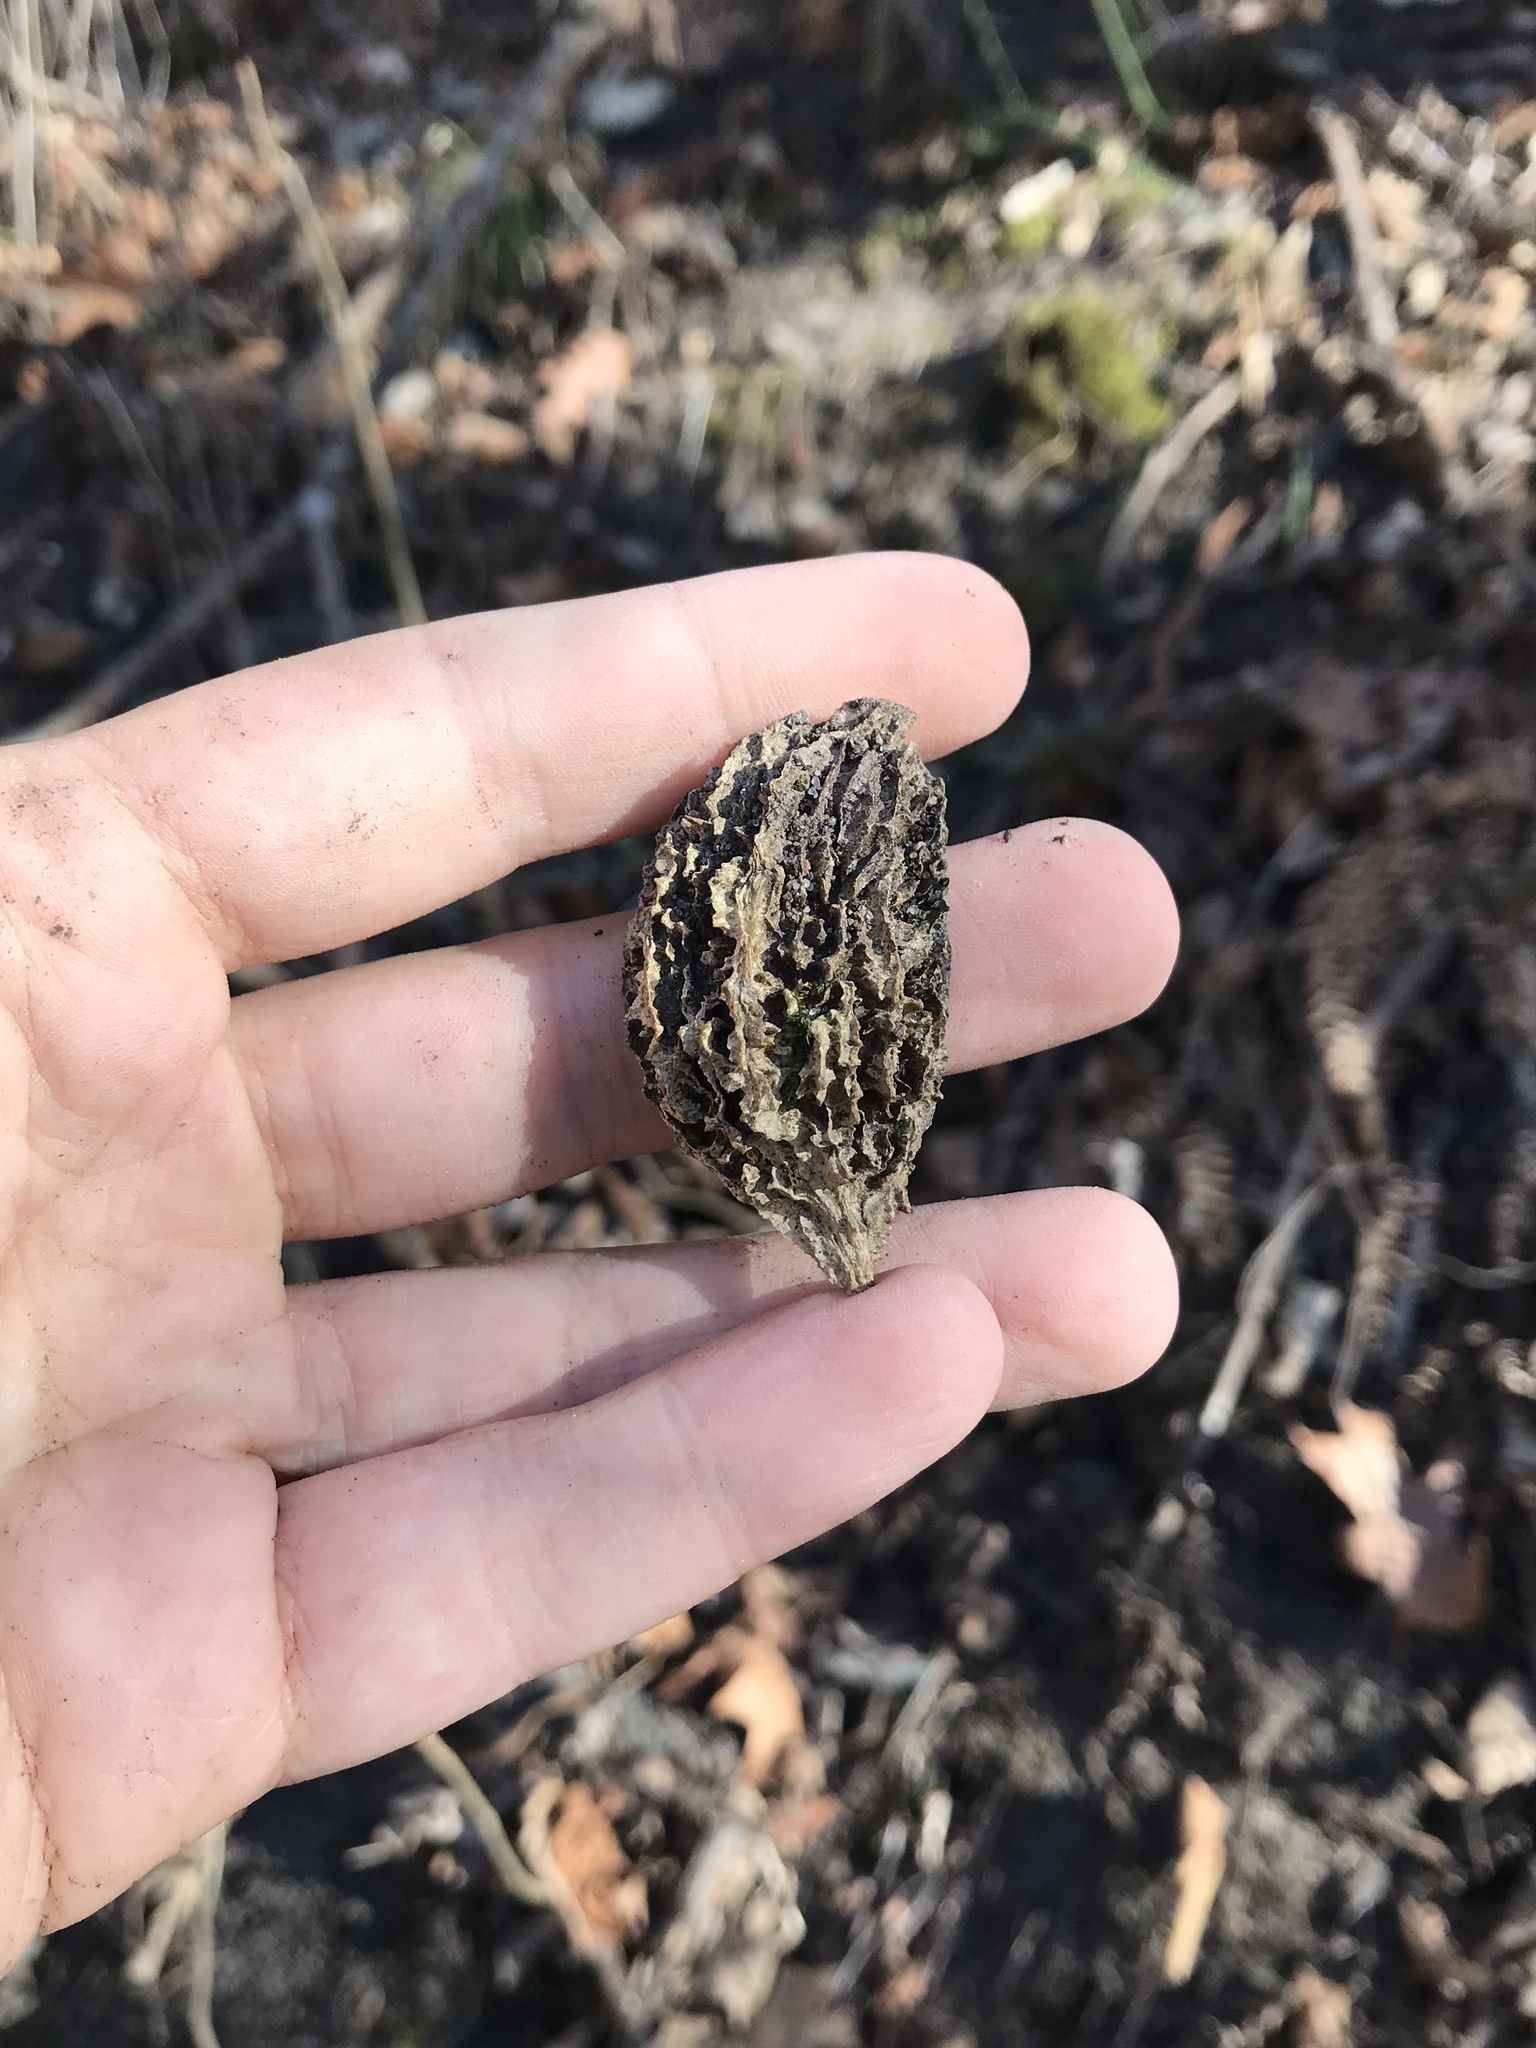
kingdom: Plantae
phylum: Tracheophyta
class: Magnoliopsida
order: Fagales
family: Juglandaceae
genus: Juglans
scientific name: Juglans cinerea
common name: Butternut
